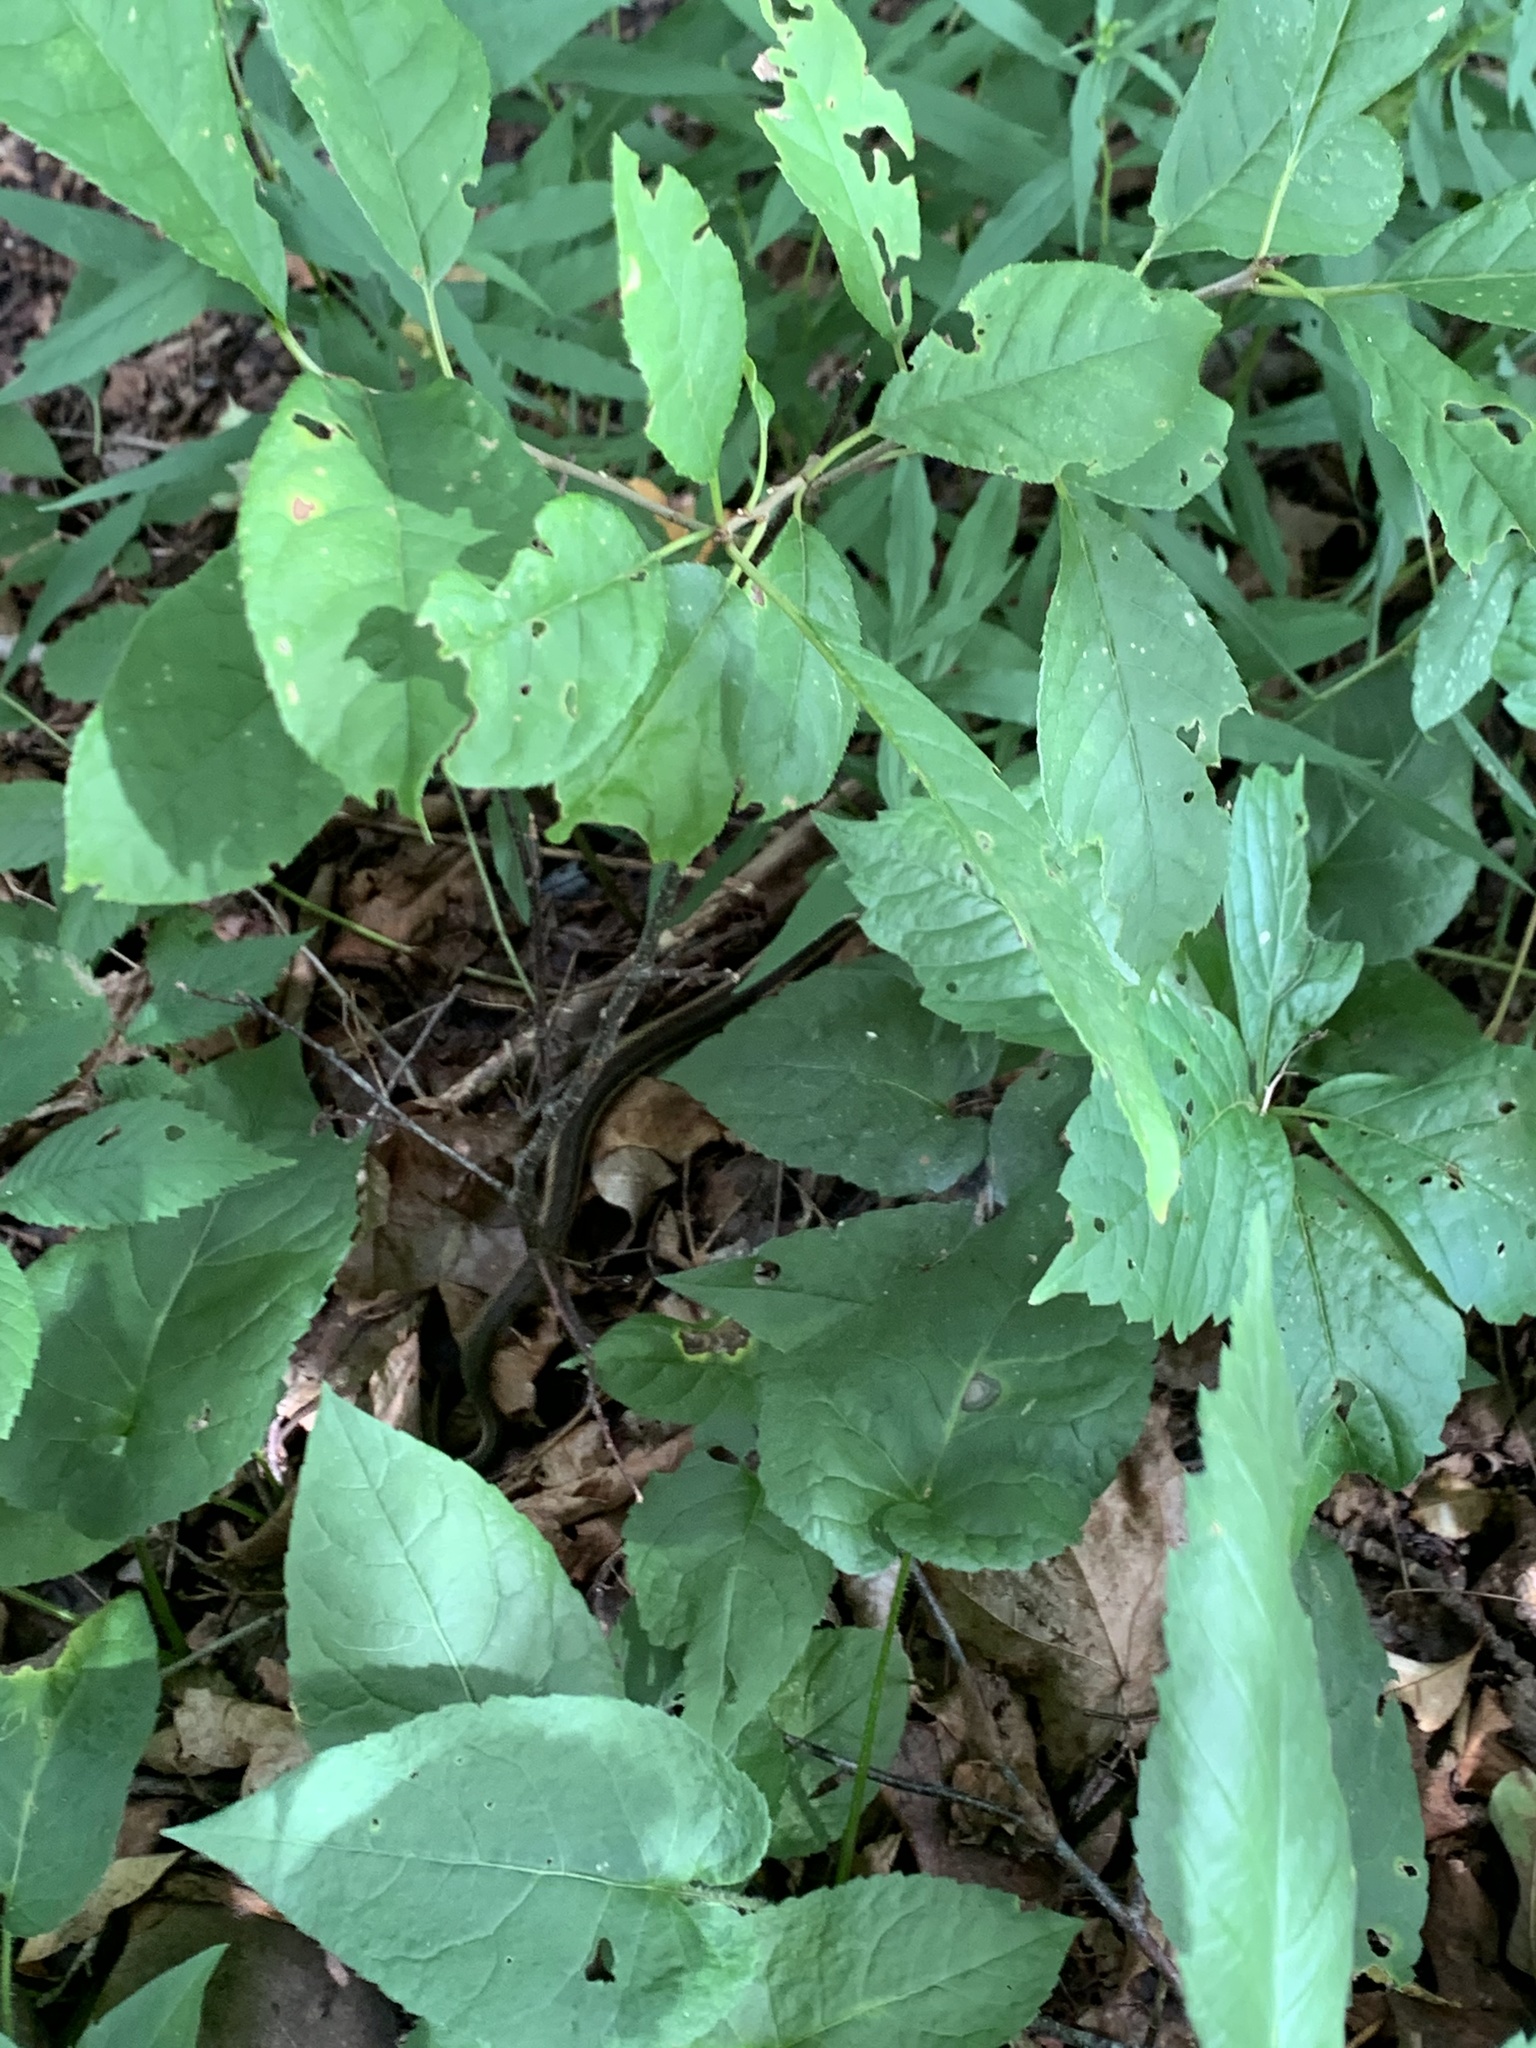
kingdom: Animalia
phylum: Chordata
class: Squamata
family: Colubridae
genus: Thamnophis
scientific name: Thamnophis sirtalis
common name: Common garter snake
